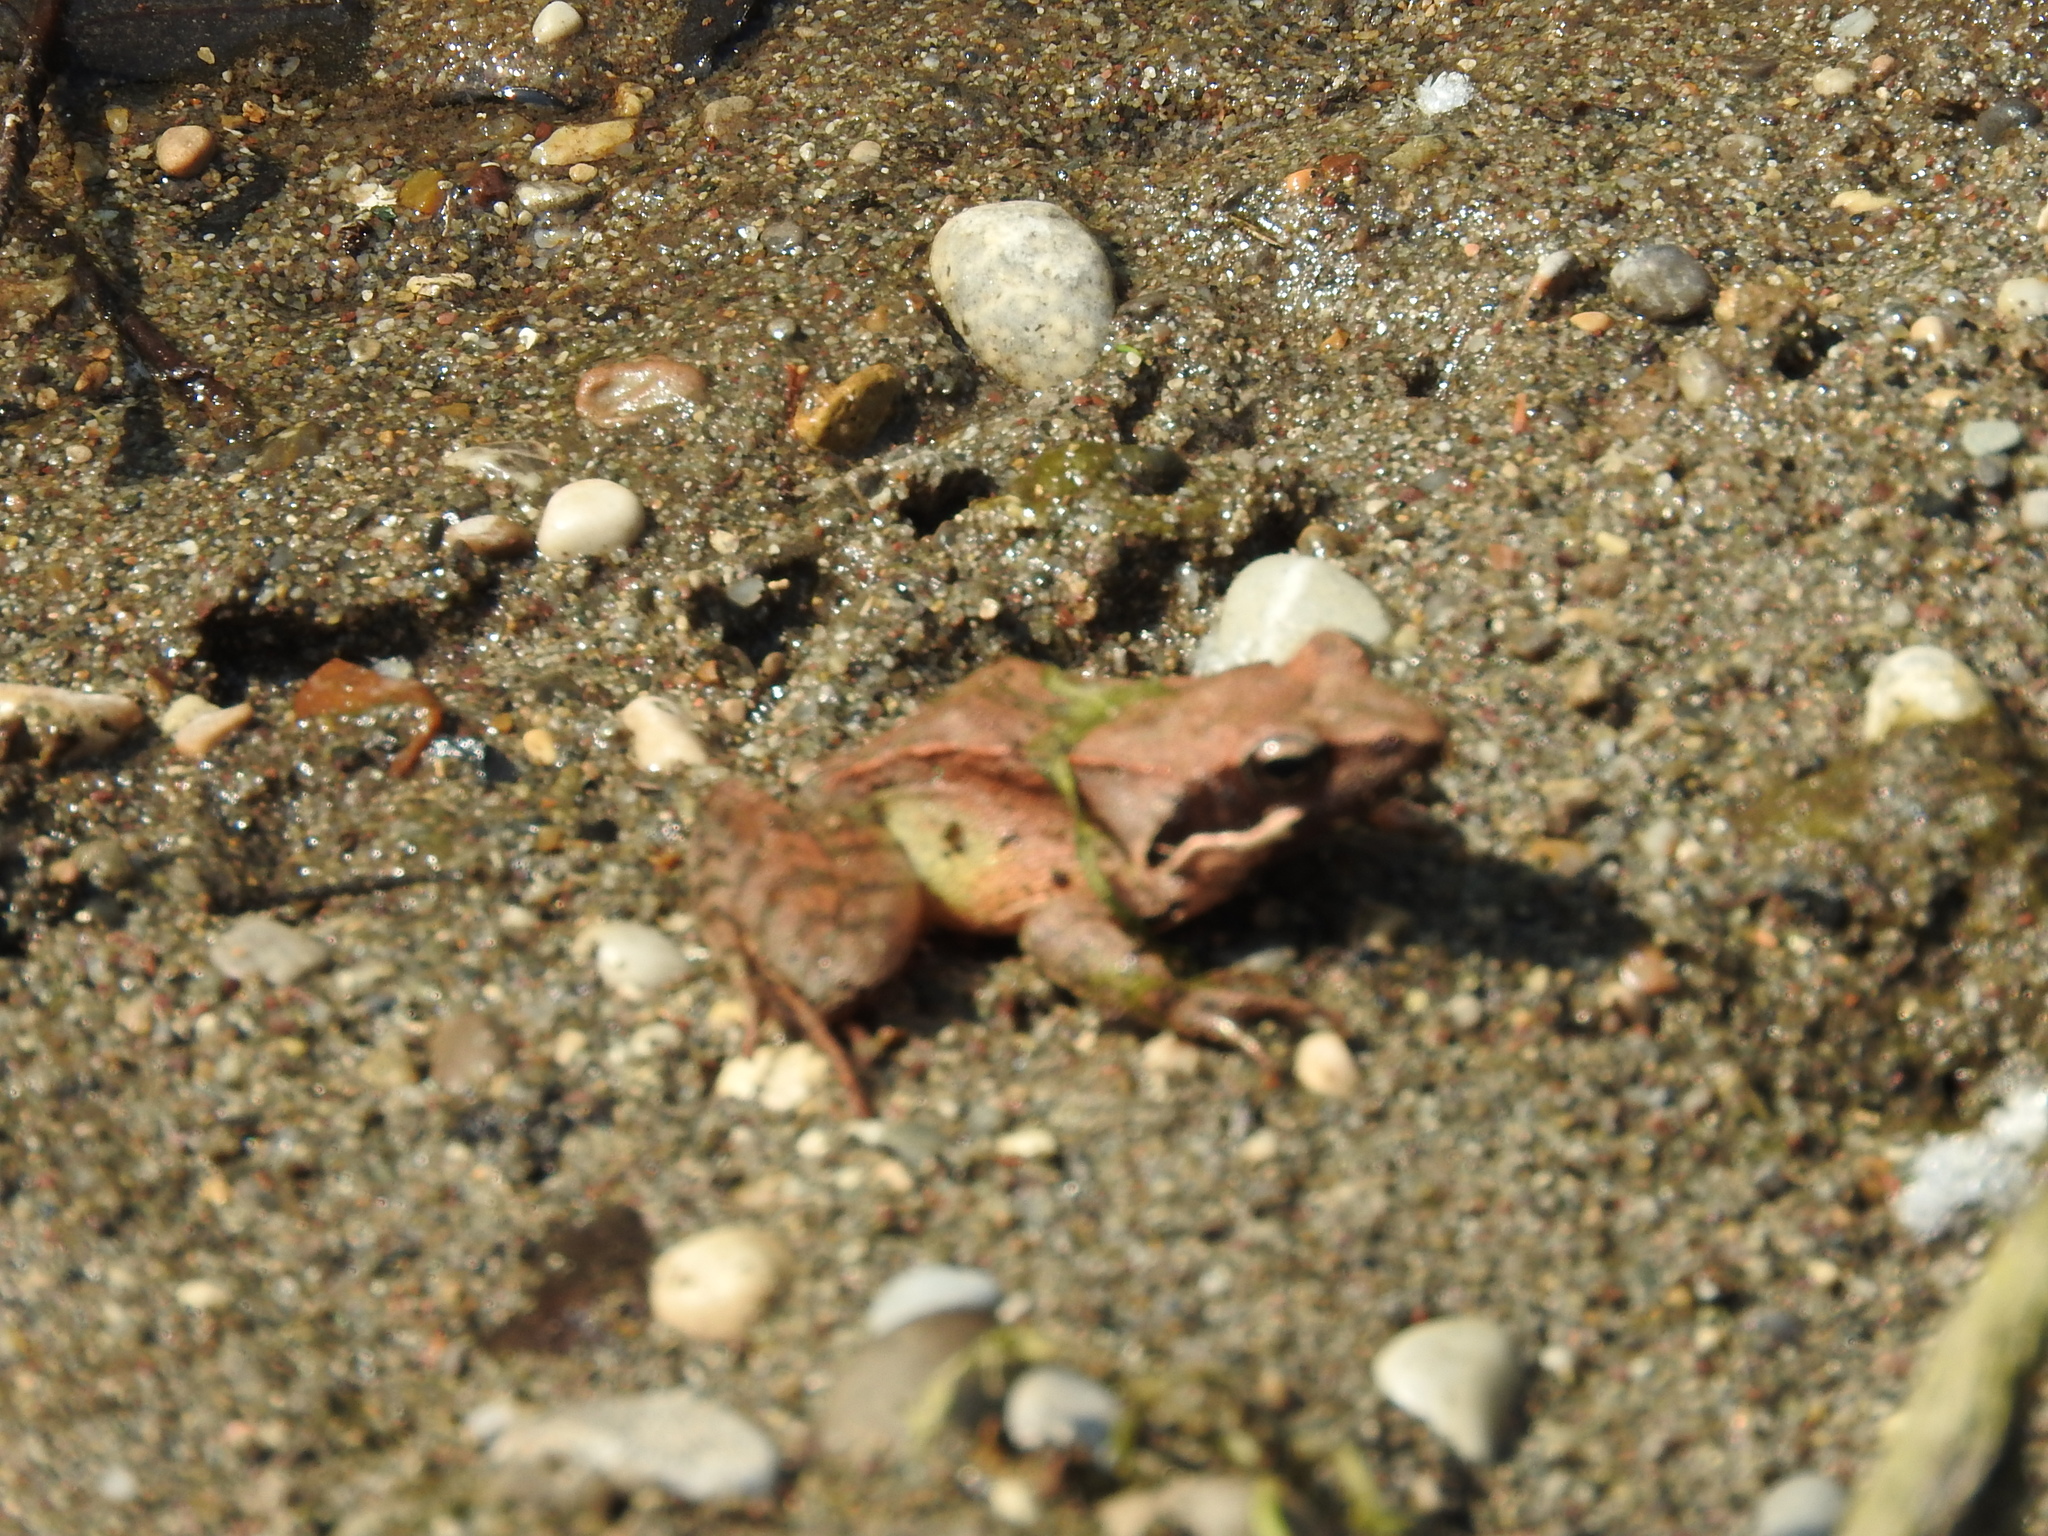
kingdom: Animalia
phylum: Chordata
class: Amphibia
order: Anura
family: Ranidae
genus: Rana
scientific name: Rana latastei
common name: Italian agile frog
